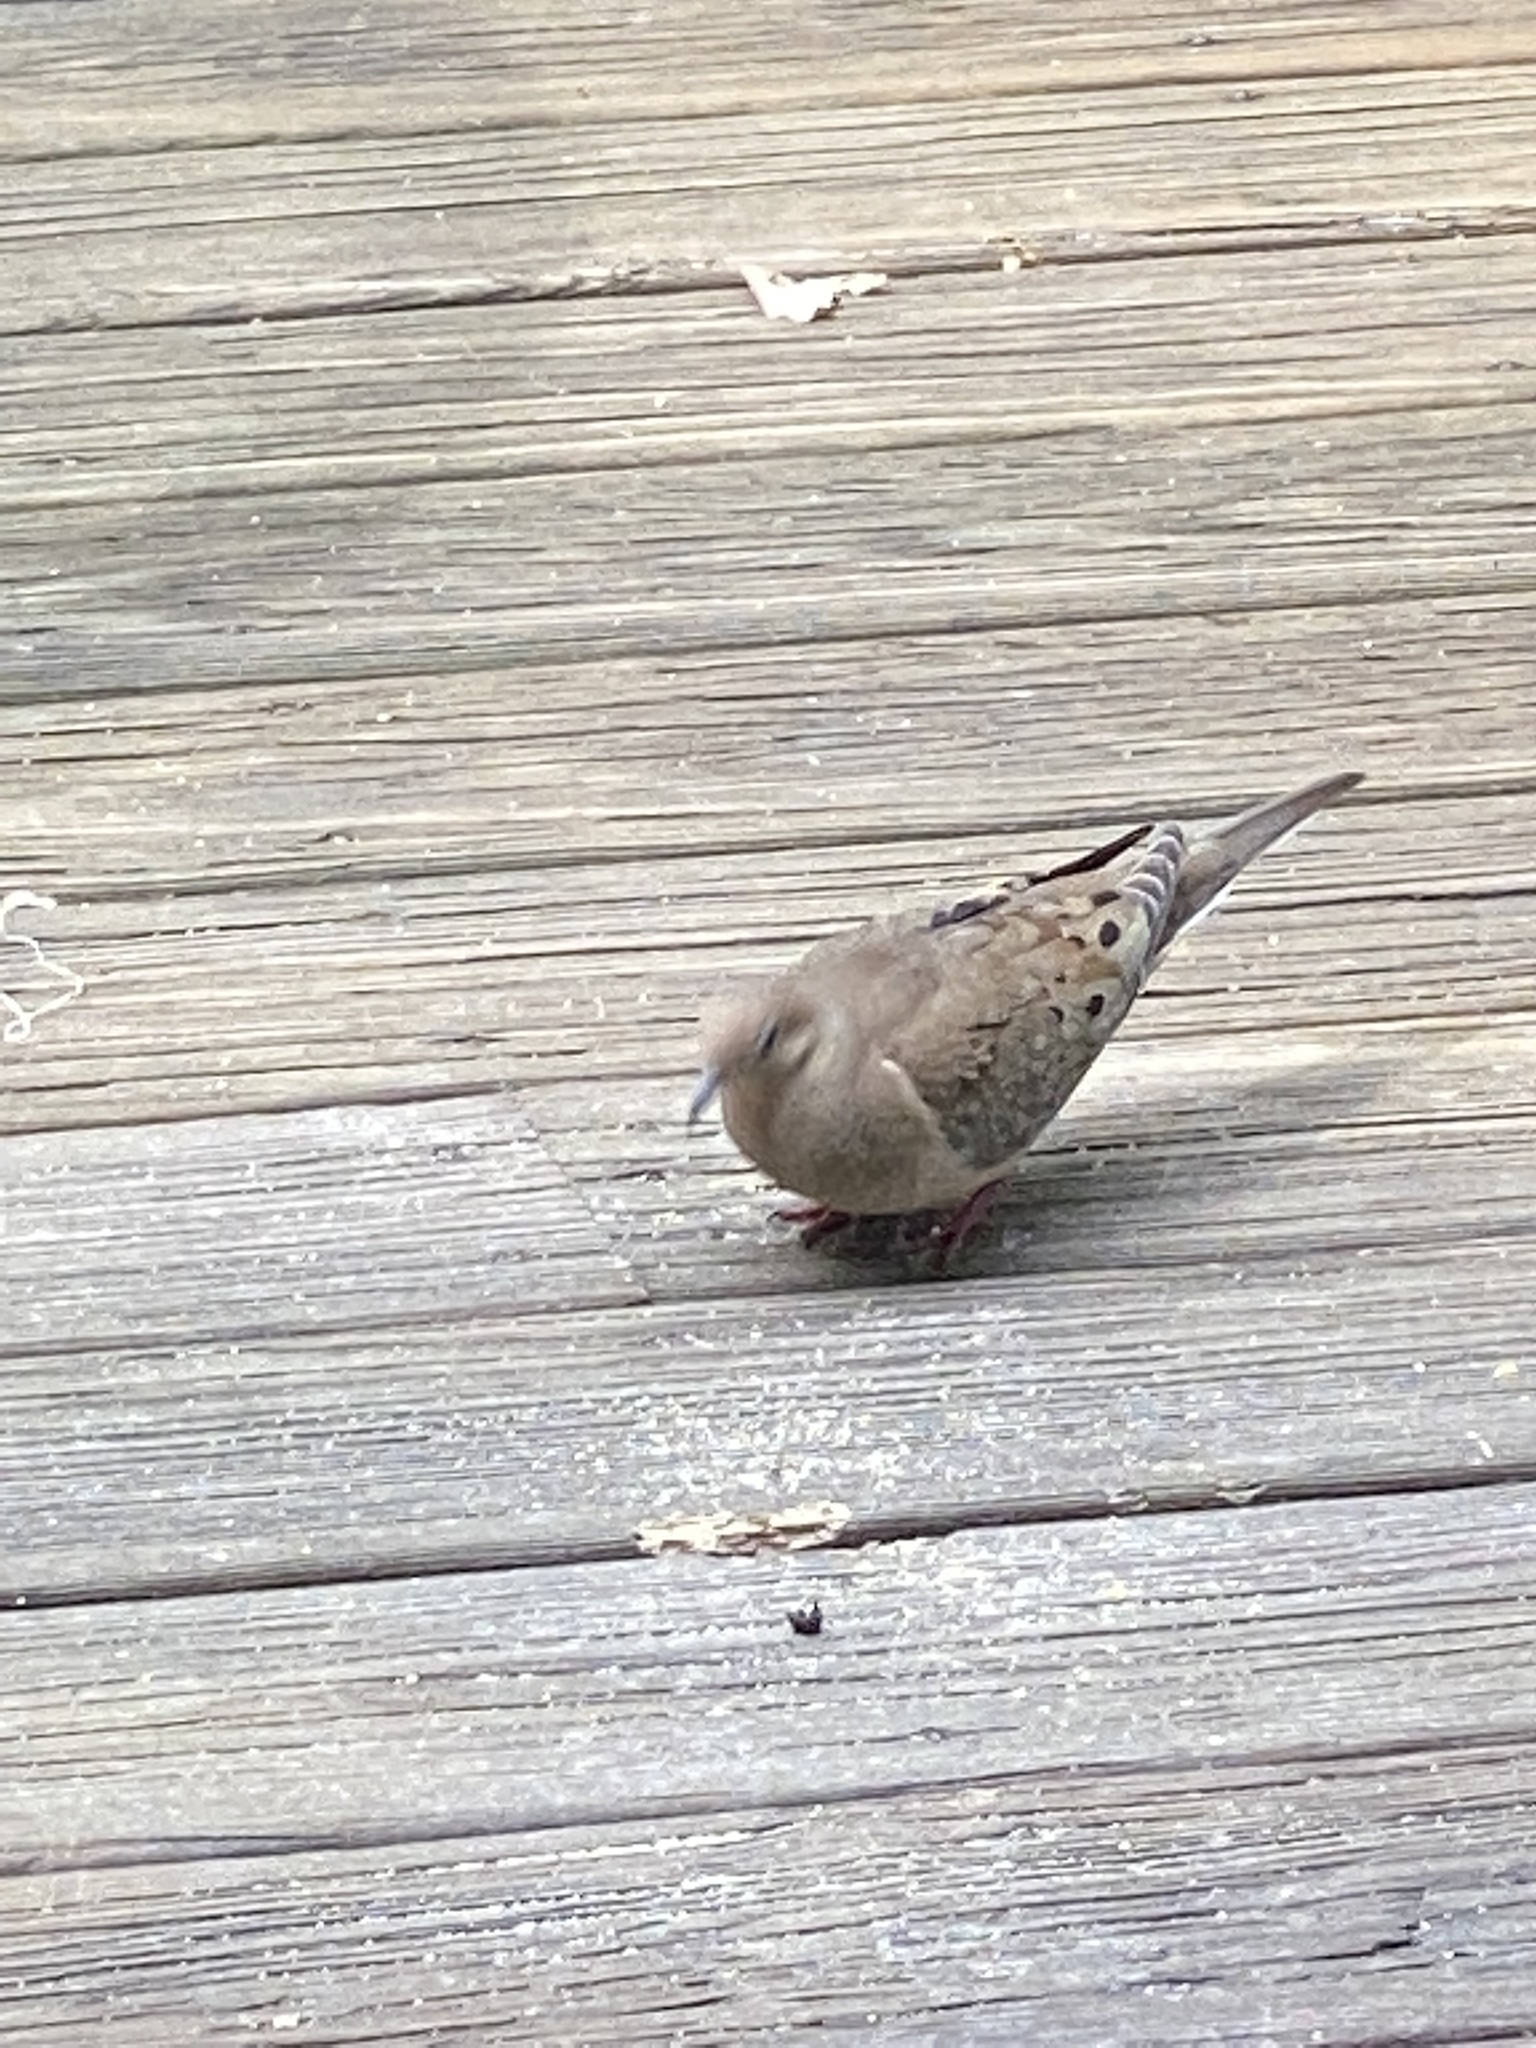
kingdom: Animalia
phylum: Chordata
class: Aves
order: Columbiformes
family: Columbidae
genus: Zenaida
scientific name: Zenaida macroura
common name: Mourning dove
